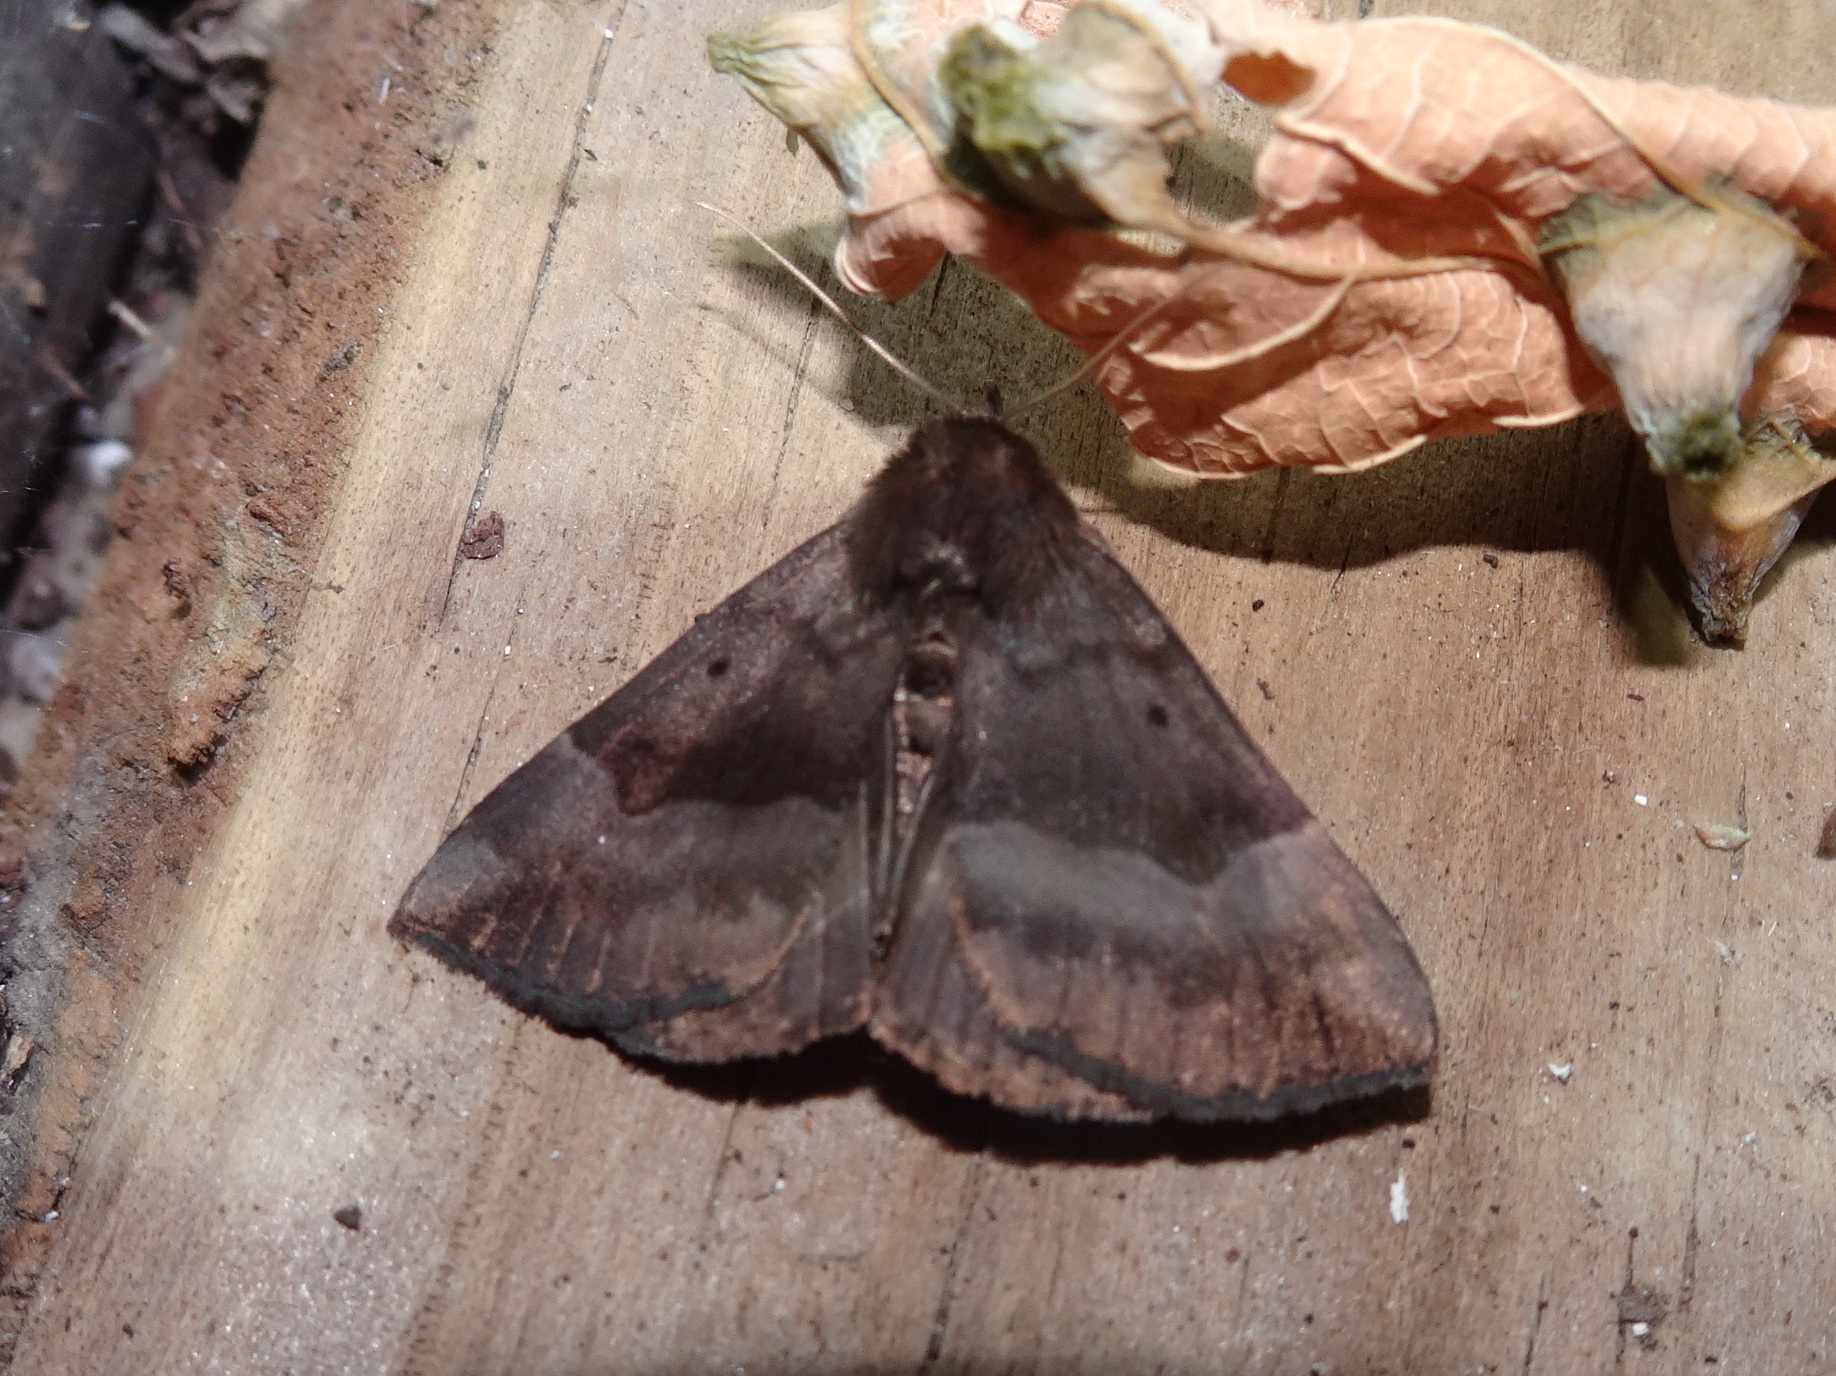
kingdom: Animalia
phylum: Arthropoda
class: Insecta
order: Lepidoptera
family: Erebidae
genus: Hypena
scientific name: Hypena madefactalis
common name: Gray-edged snout
